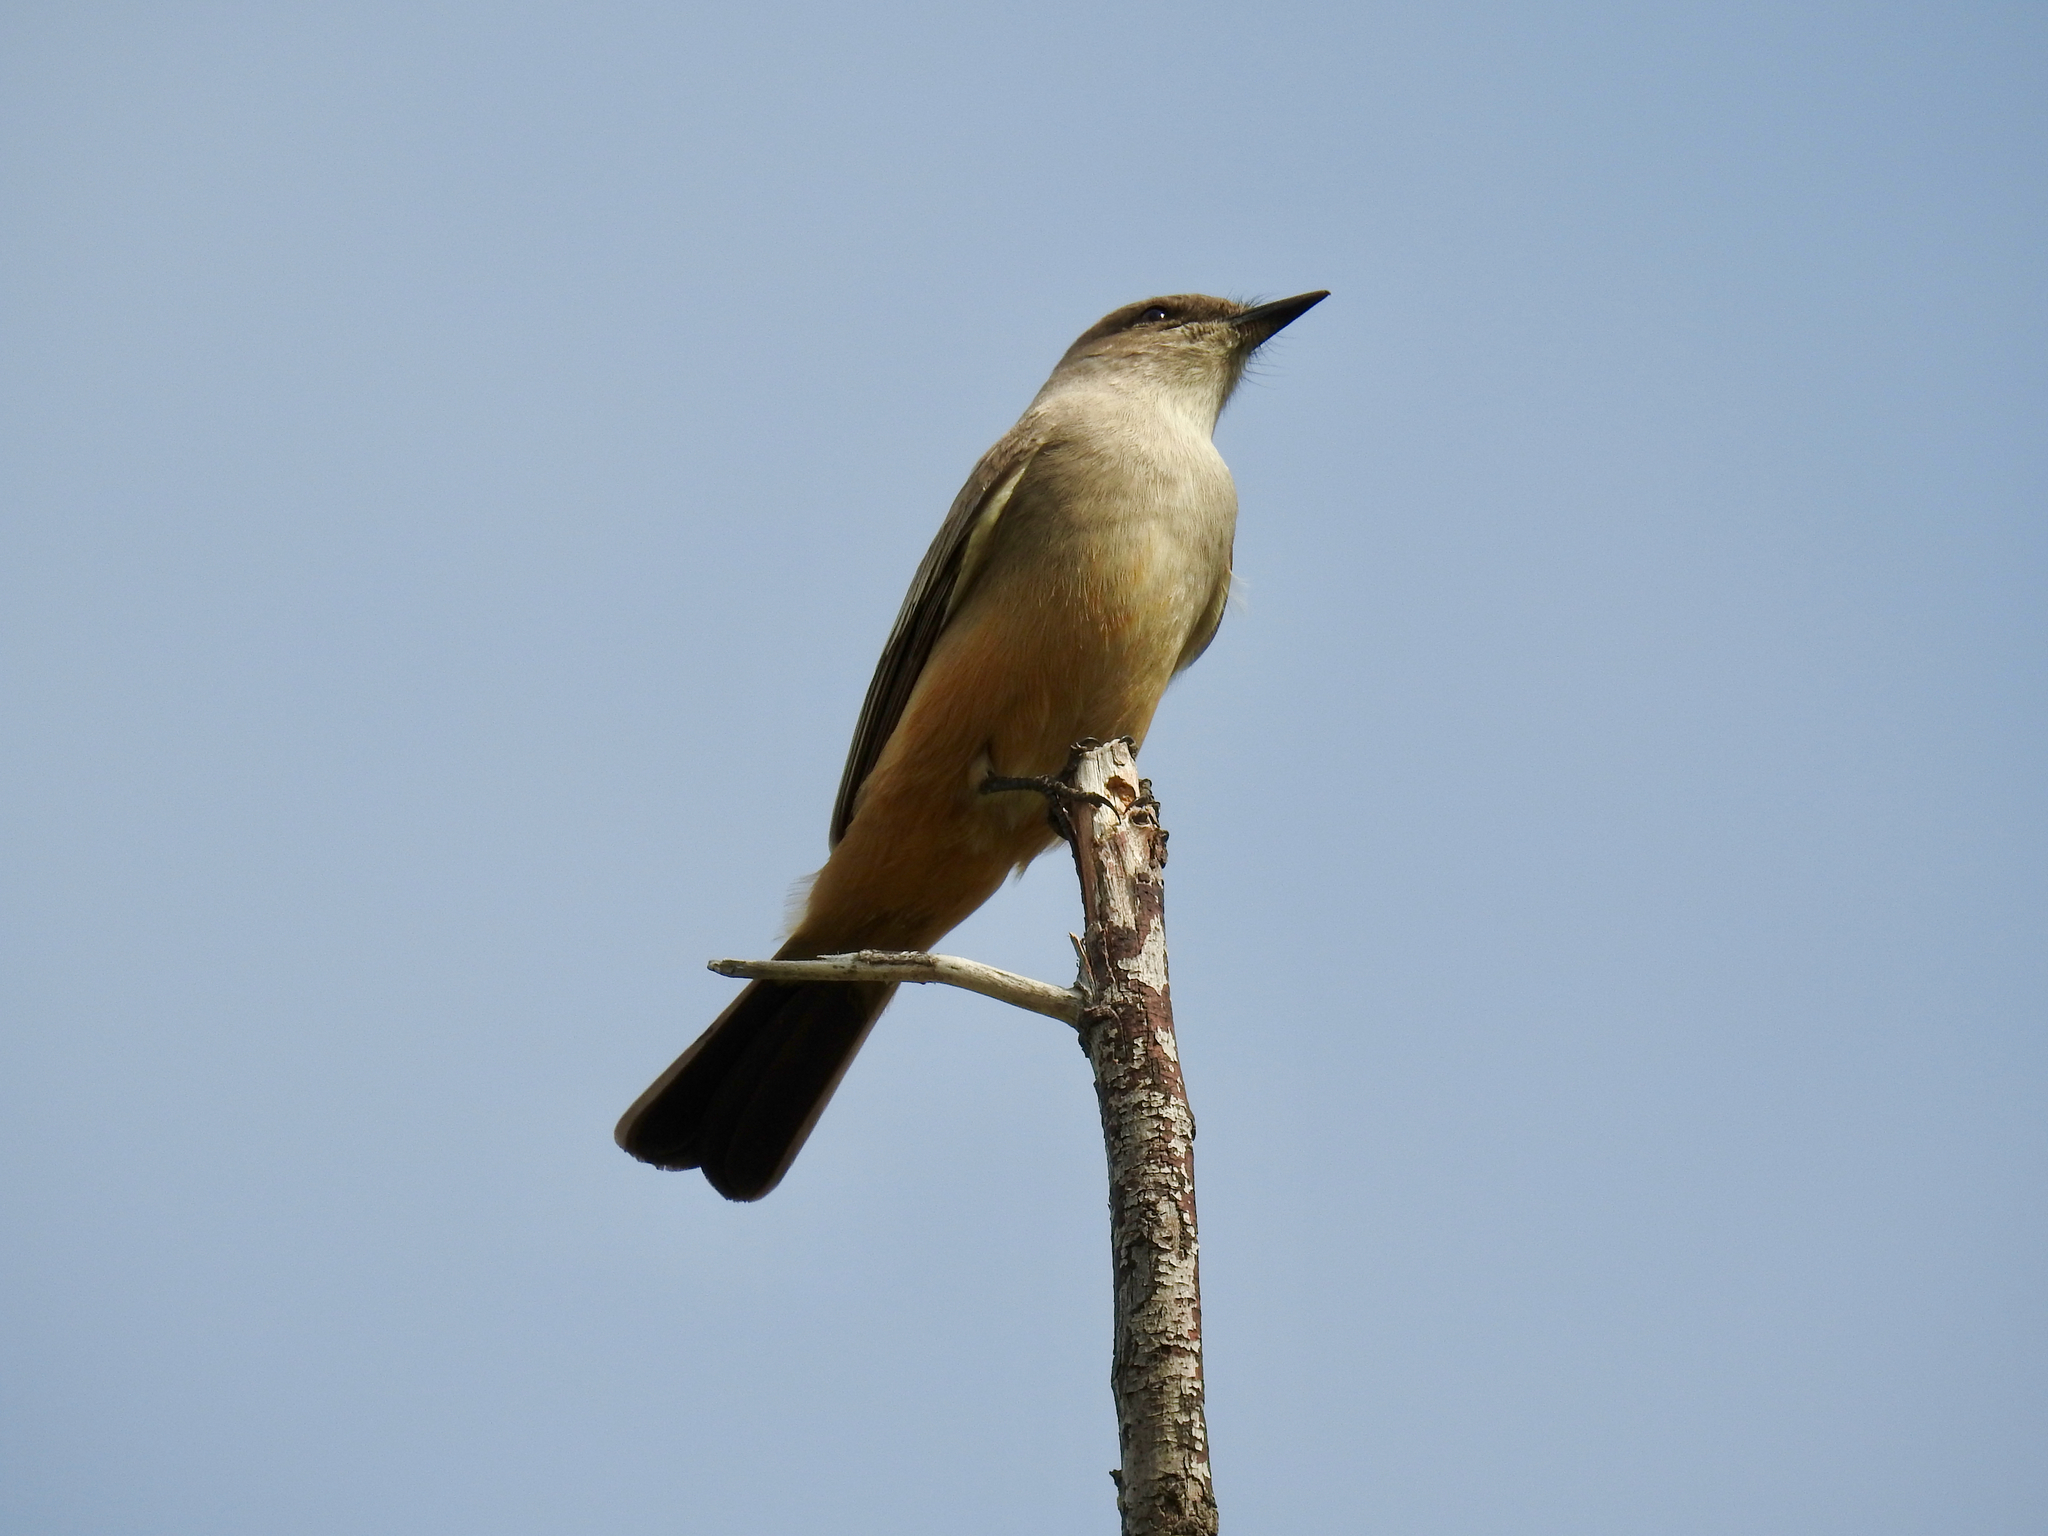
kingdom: Animalia
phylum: Chordata
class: Aves
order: Passeriformes
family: Tyrannidae
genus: Sayornis
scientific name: Sayornis saya
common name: Say's phoebe
